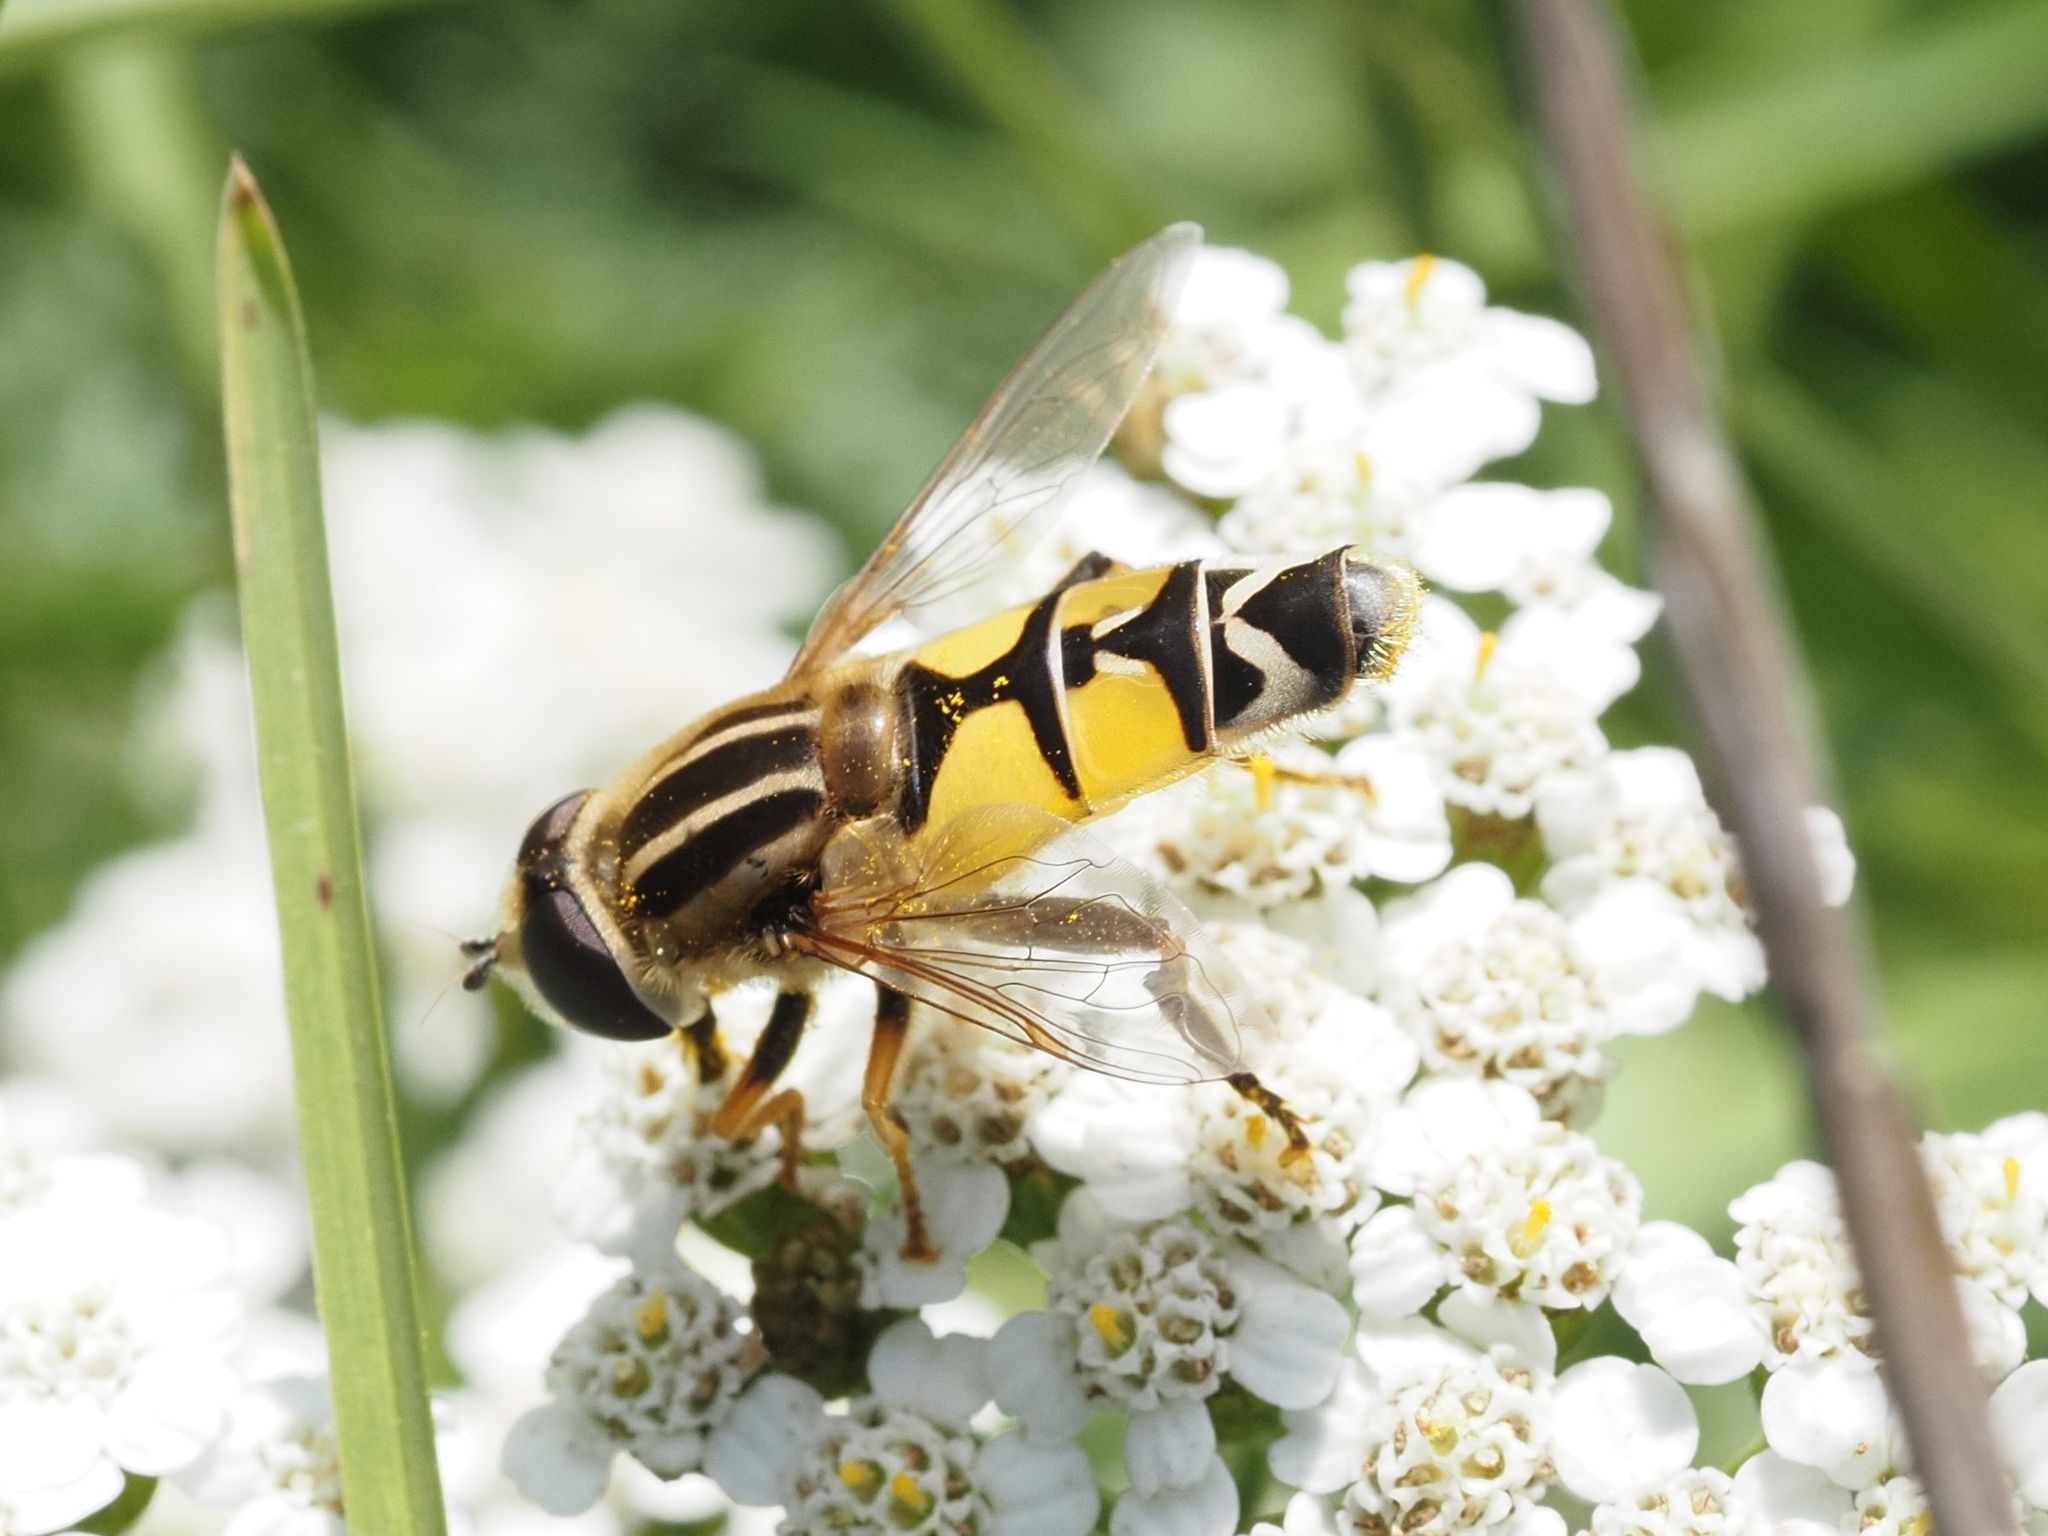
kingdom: Animalia
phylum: Arthropoda
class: Insecta
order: Diptera
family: Syrphidae
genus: Helophilus
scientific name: Helophilus trivittatus
